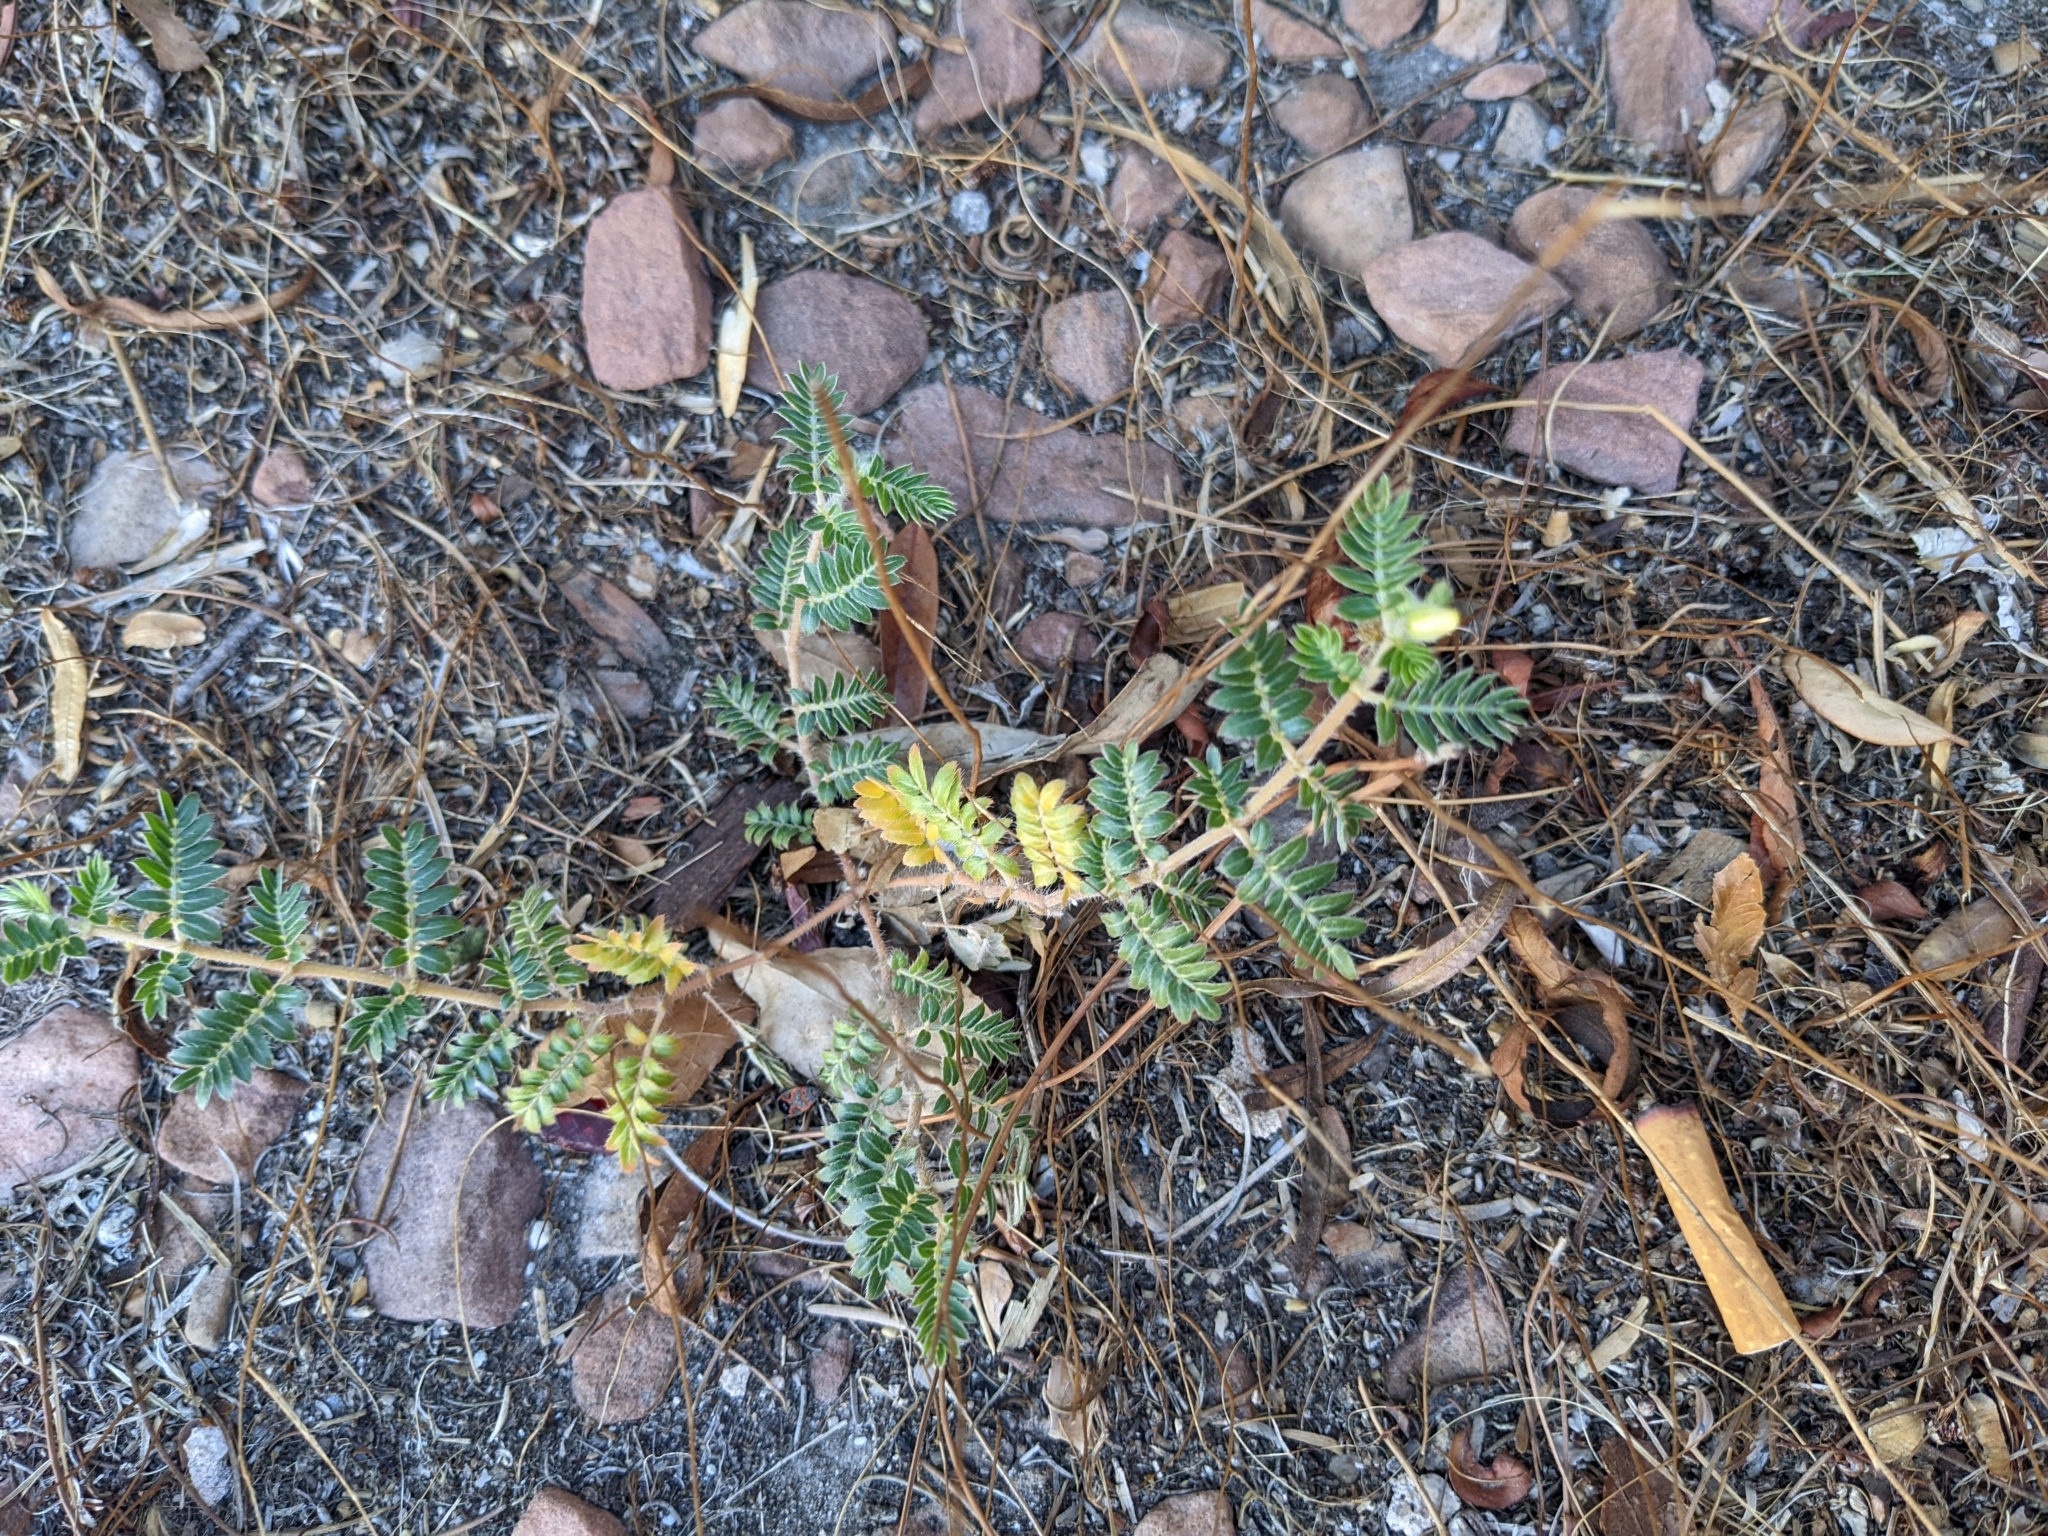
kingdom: Plantae
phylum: Tracheophyta
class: Magnoliopsida
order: Zygophyllales
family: Zygophyllaceae
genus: Tribulus
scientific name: Tribulus terrestris
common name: Puncturevine
